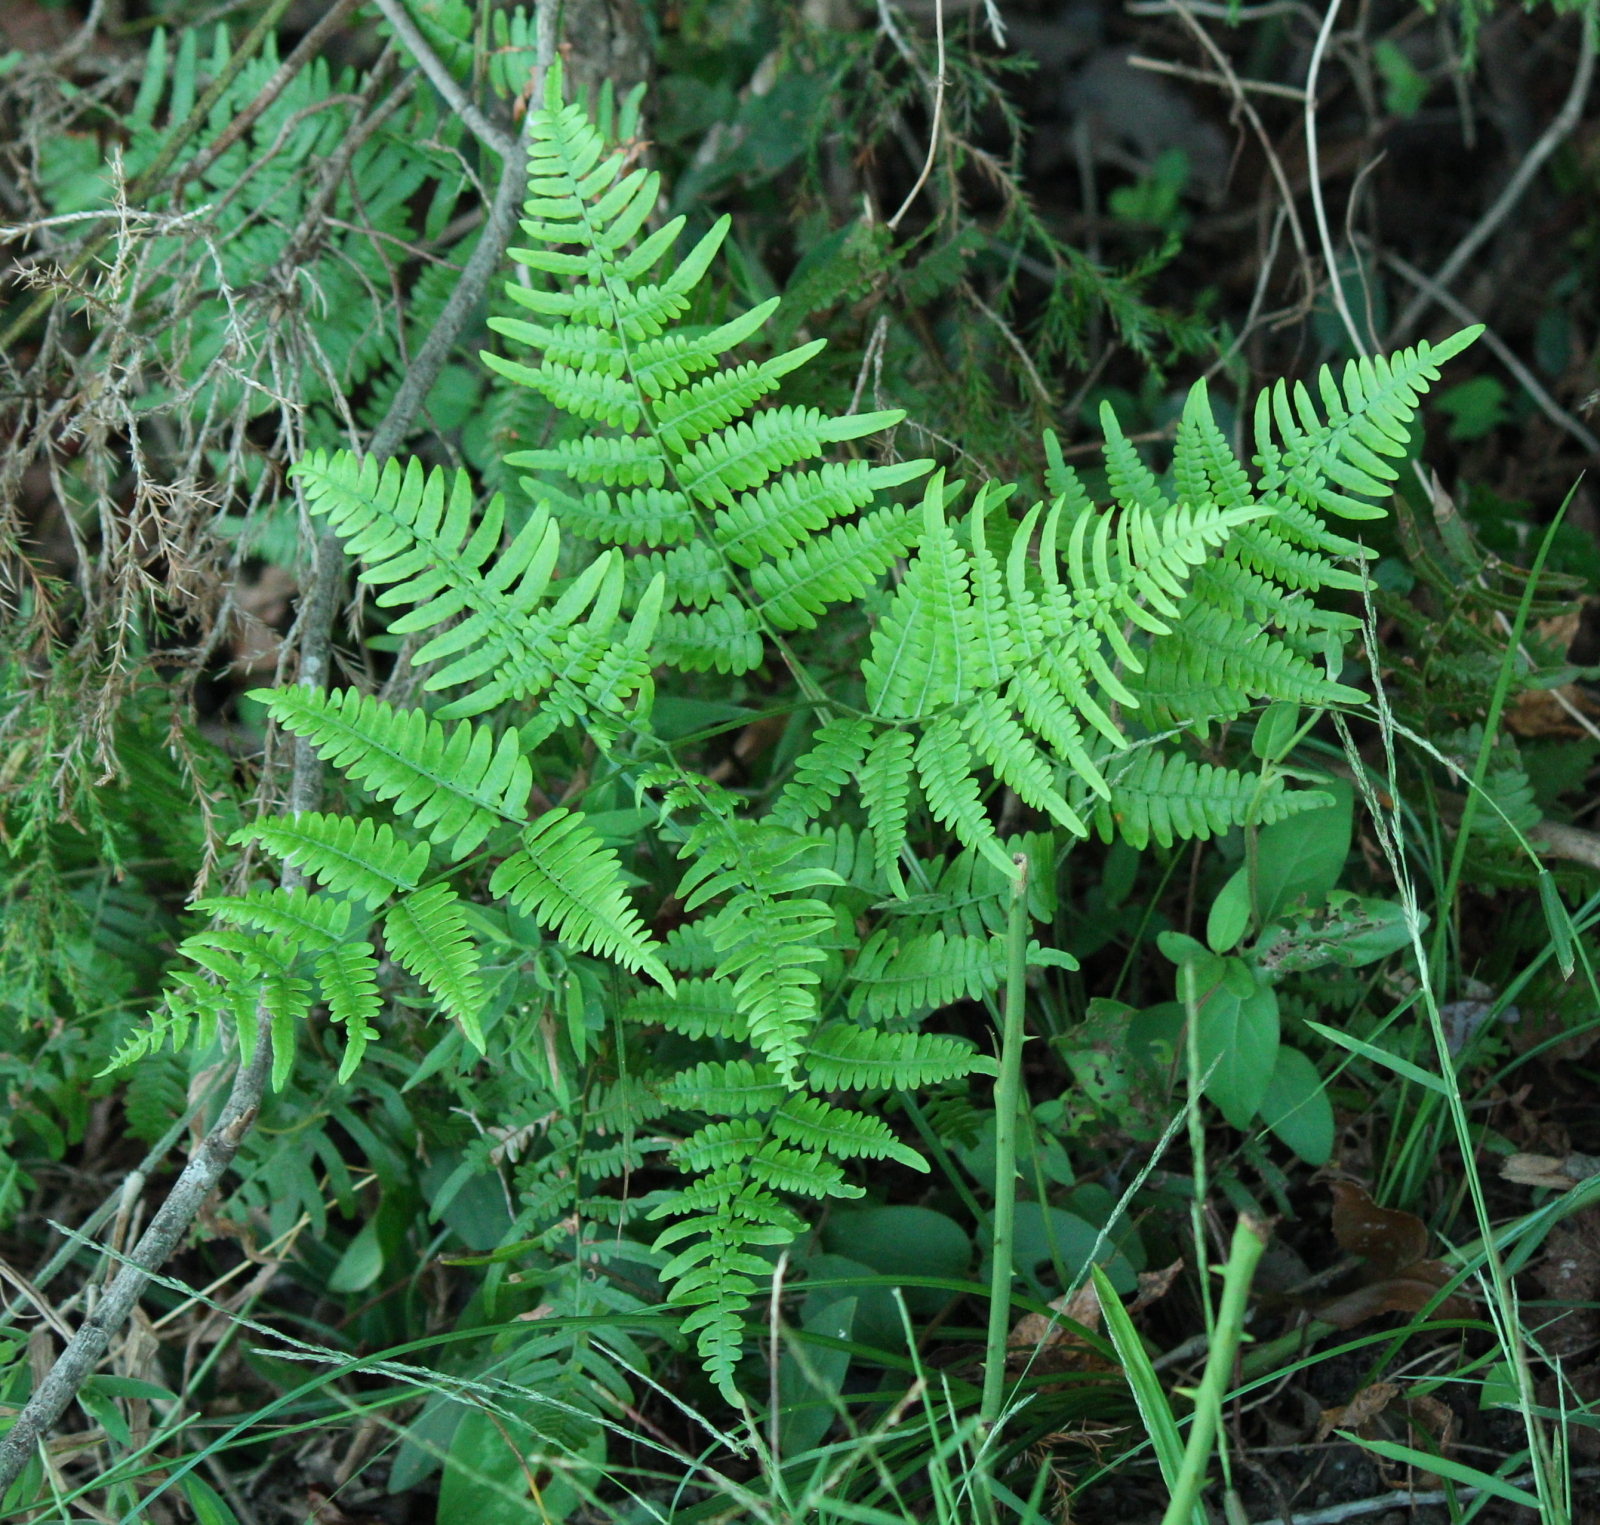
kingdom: Plantae
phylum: Tracheophyta
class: Polypodiopsida
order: Polypodiales
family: Dennstaedtiaceae
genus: Pteridium
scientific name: Pteridium aquilinum
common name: Bracken
